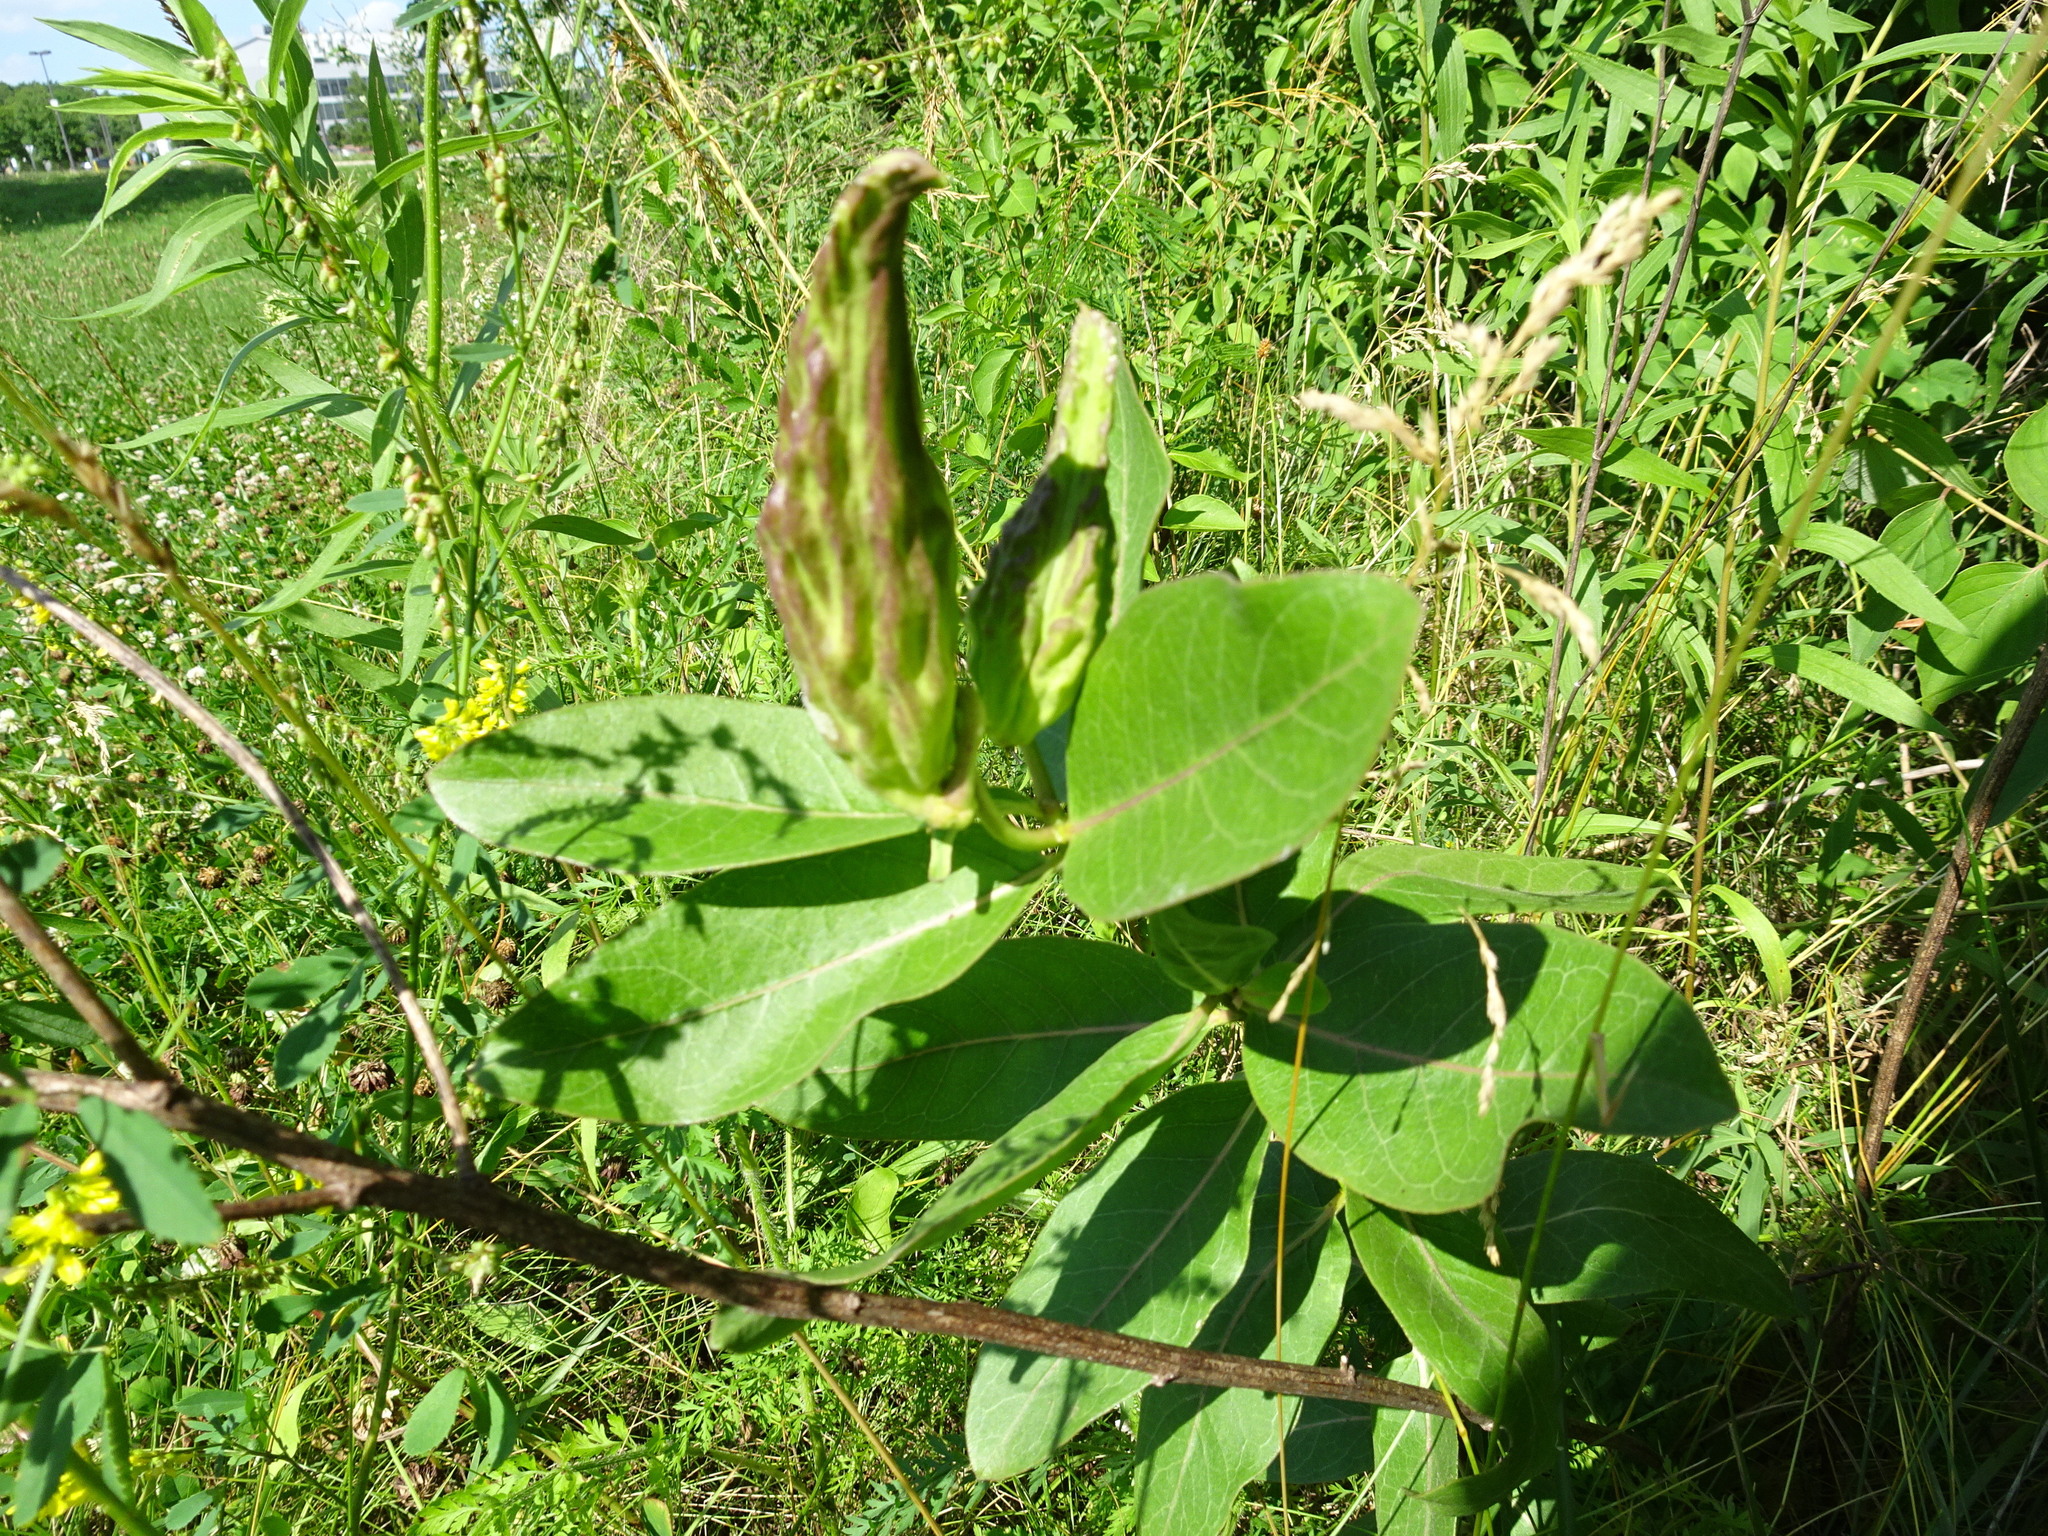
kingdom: Plantae
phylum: Tracheophyta
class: Magnoliopsida
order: Gentianales
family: Apocynaceae
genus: Asclepias
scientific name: Asclepias viridis
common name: Antelope-horns
